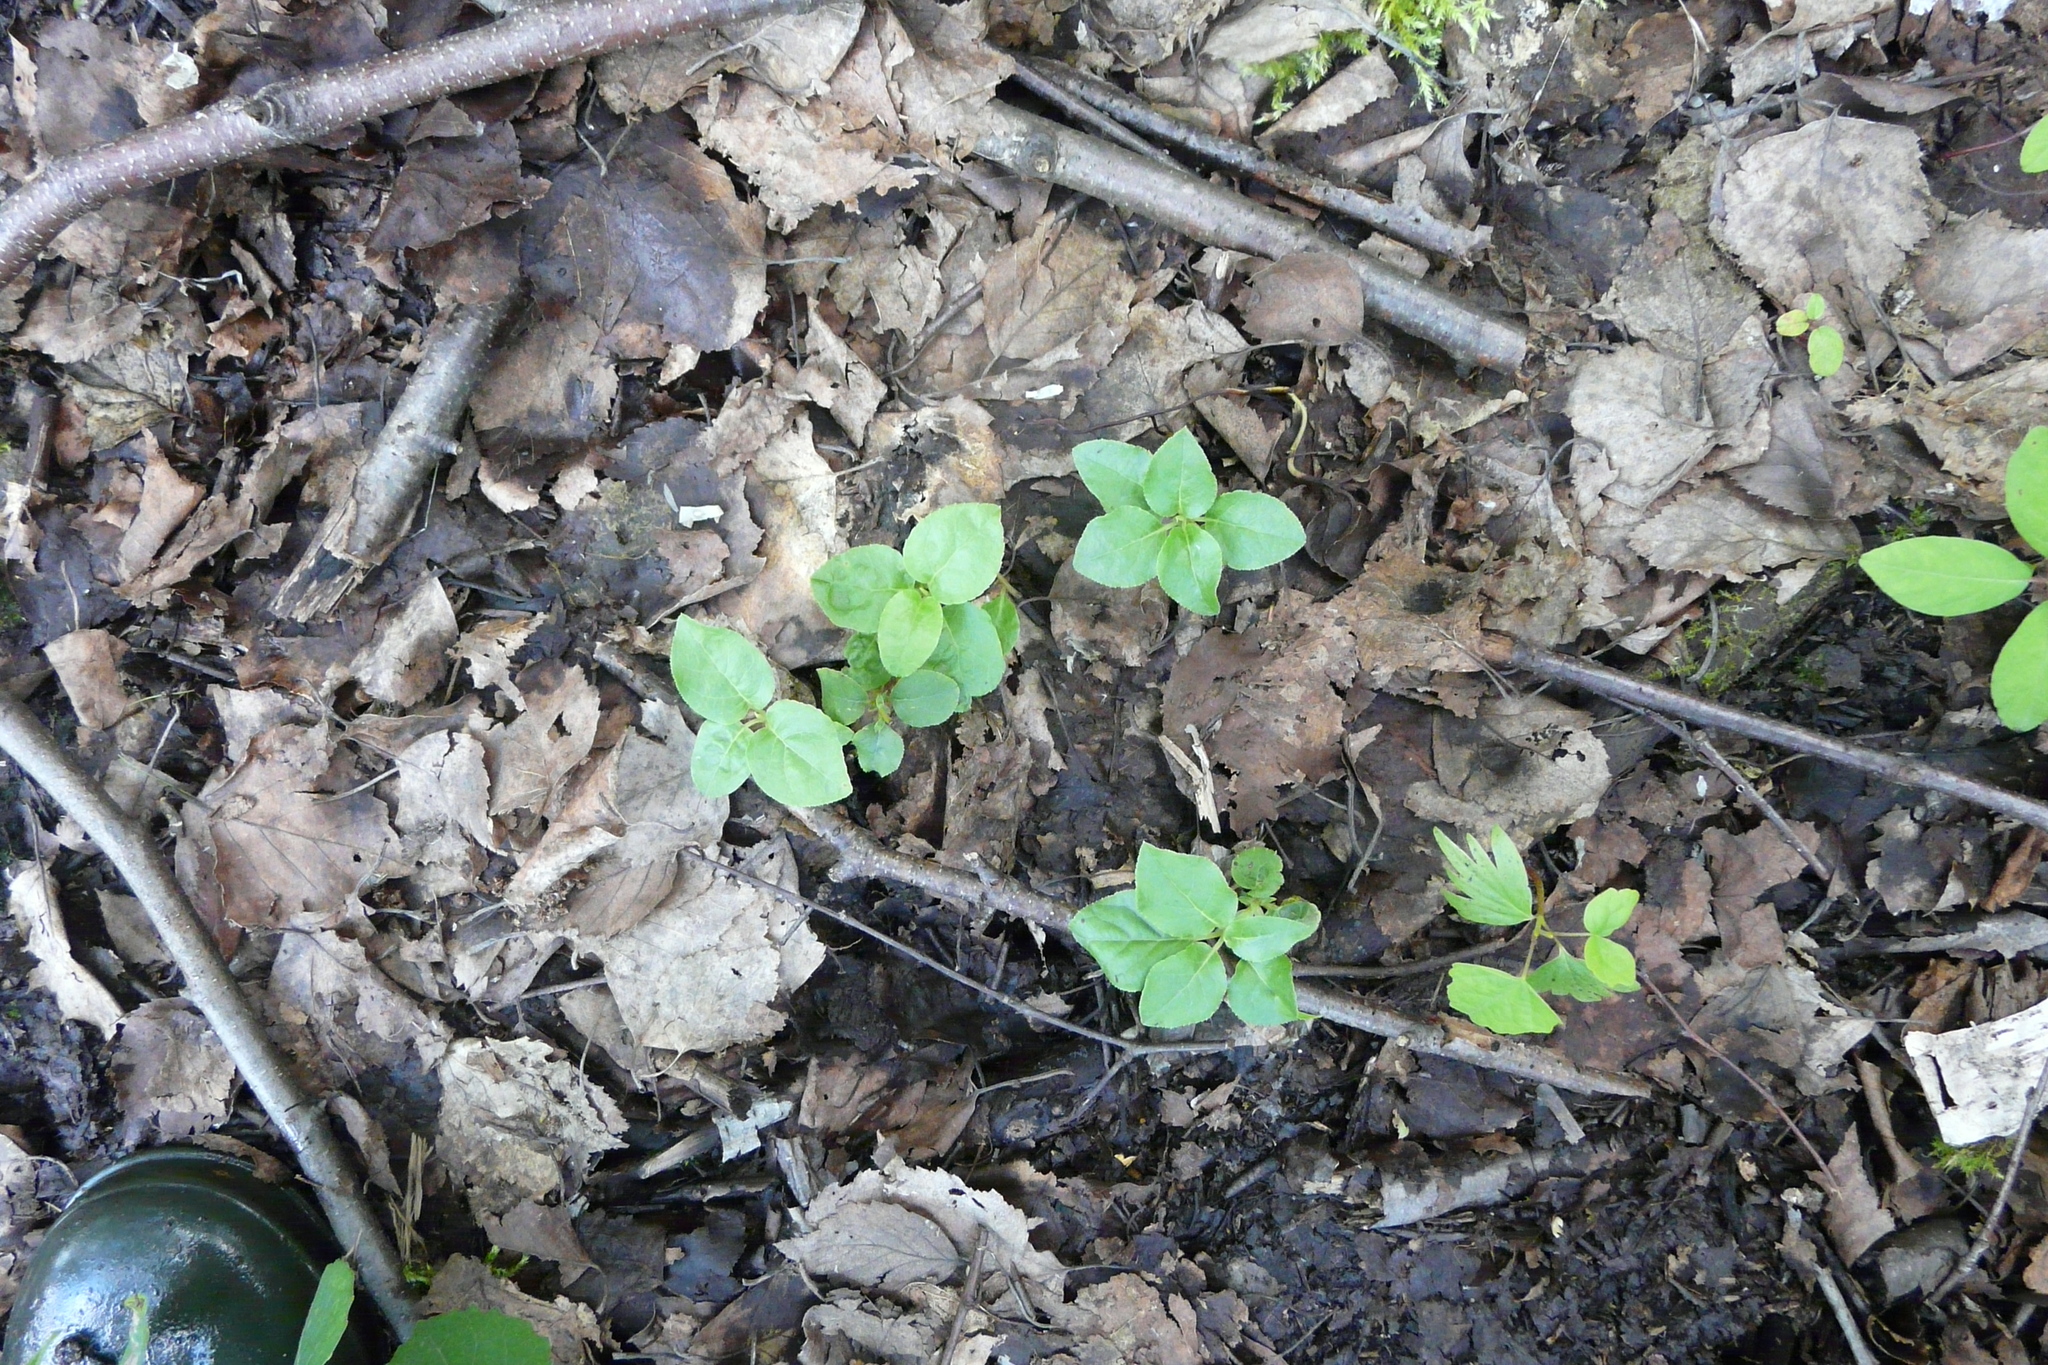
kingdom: Plantae
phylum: Tracheophyta
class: Magnoliopsida
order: Ericales
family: Ericaceae
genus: Orthilia
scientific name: Orthilia secunda
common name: One-sided orthilia
